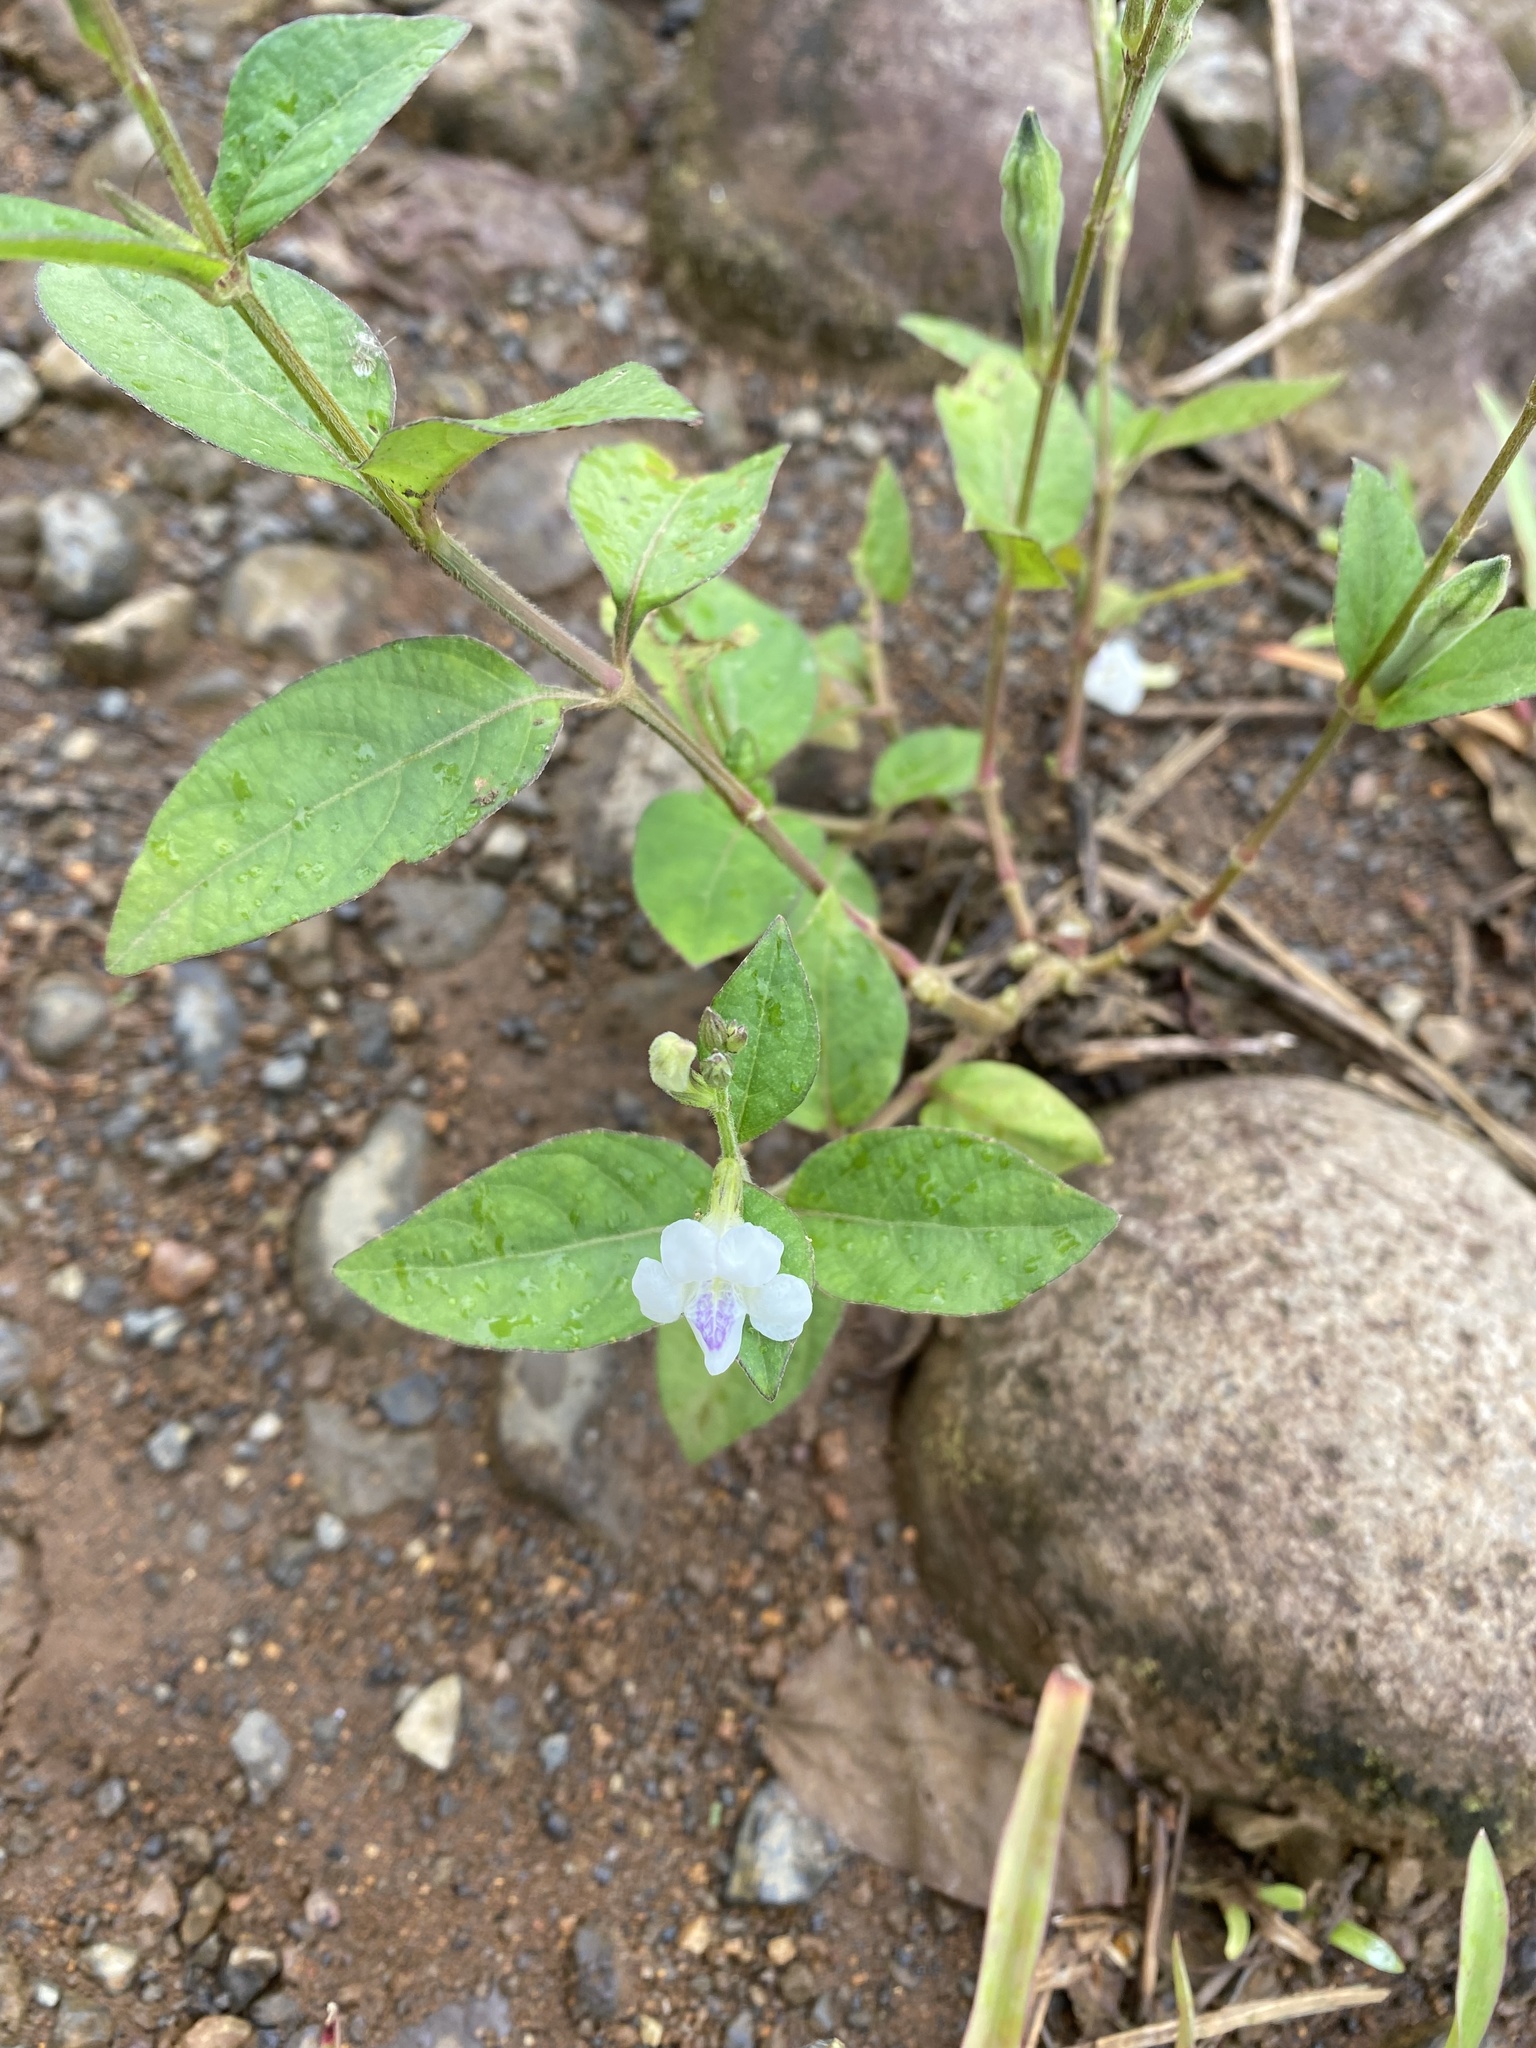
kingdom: Plantae
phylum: Tracheophyta
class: Magnoliopsida
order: Lamiales
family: Acanthaceae
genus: Asystasia
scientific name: Asystasia intrusa
